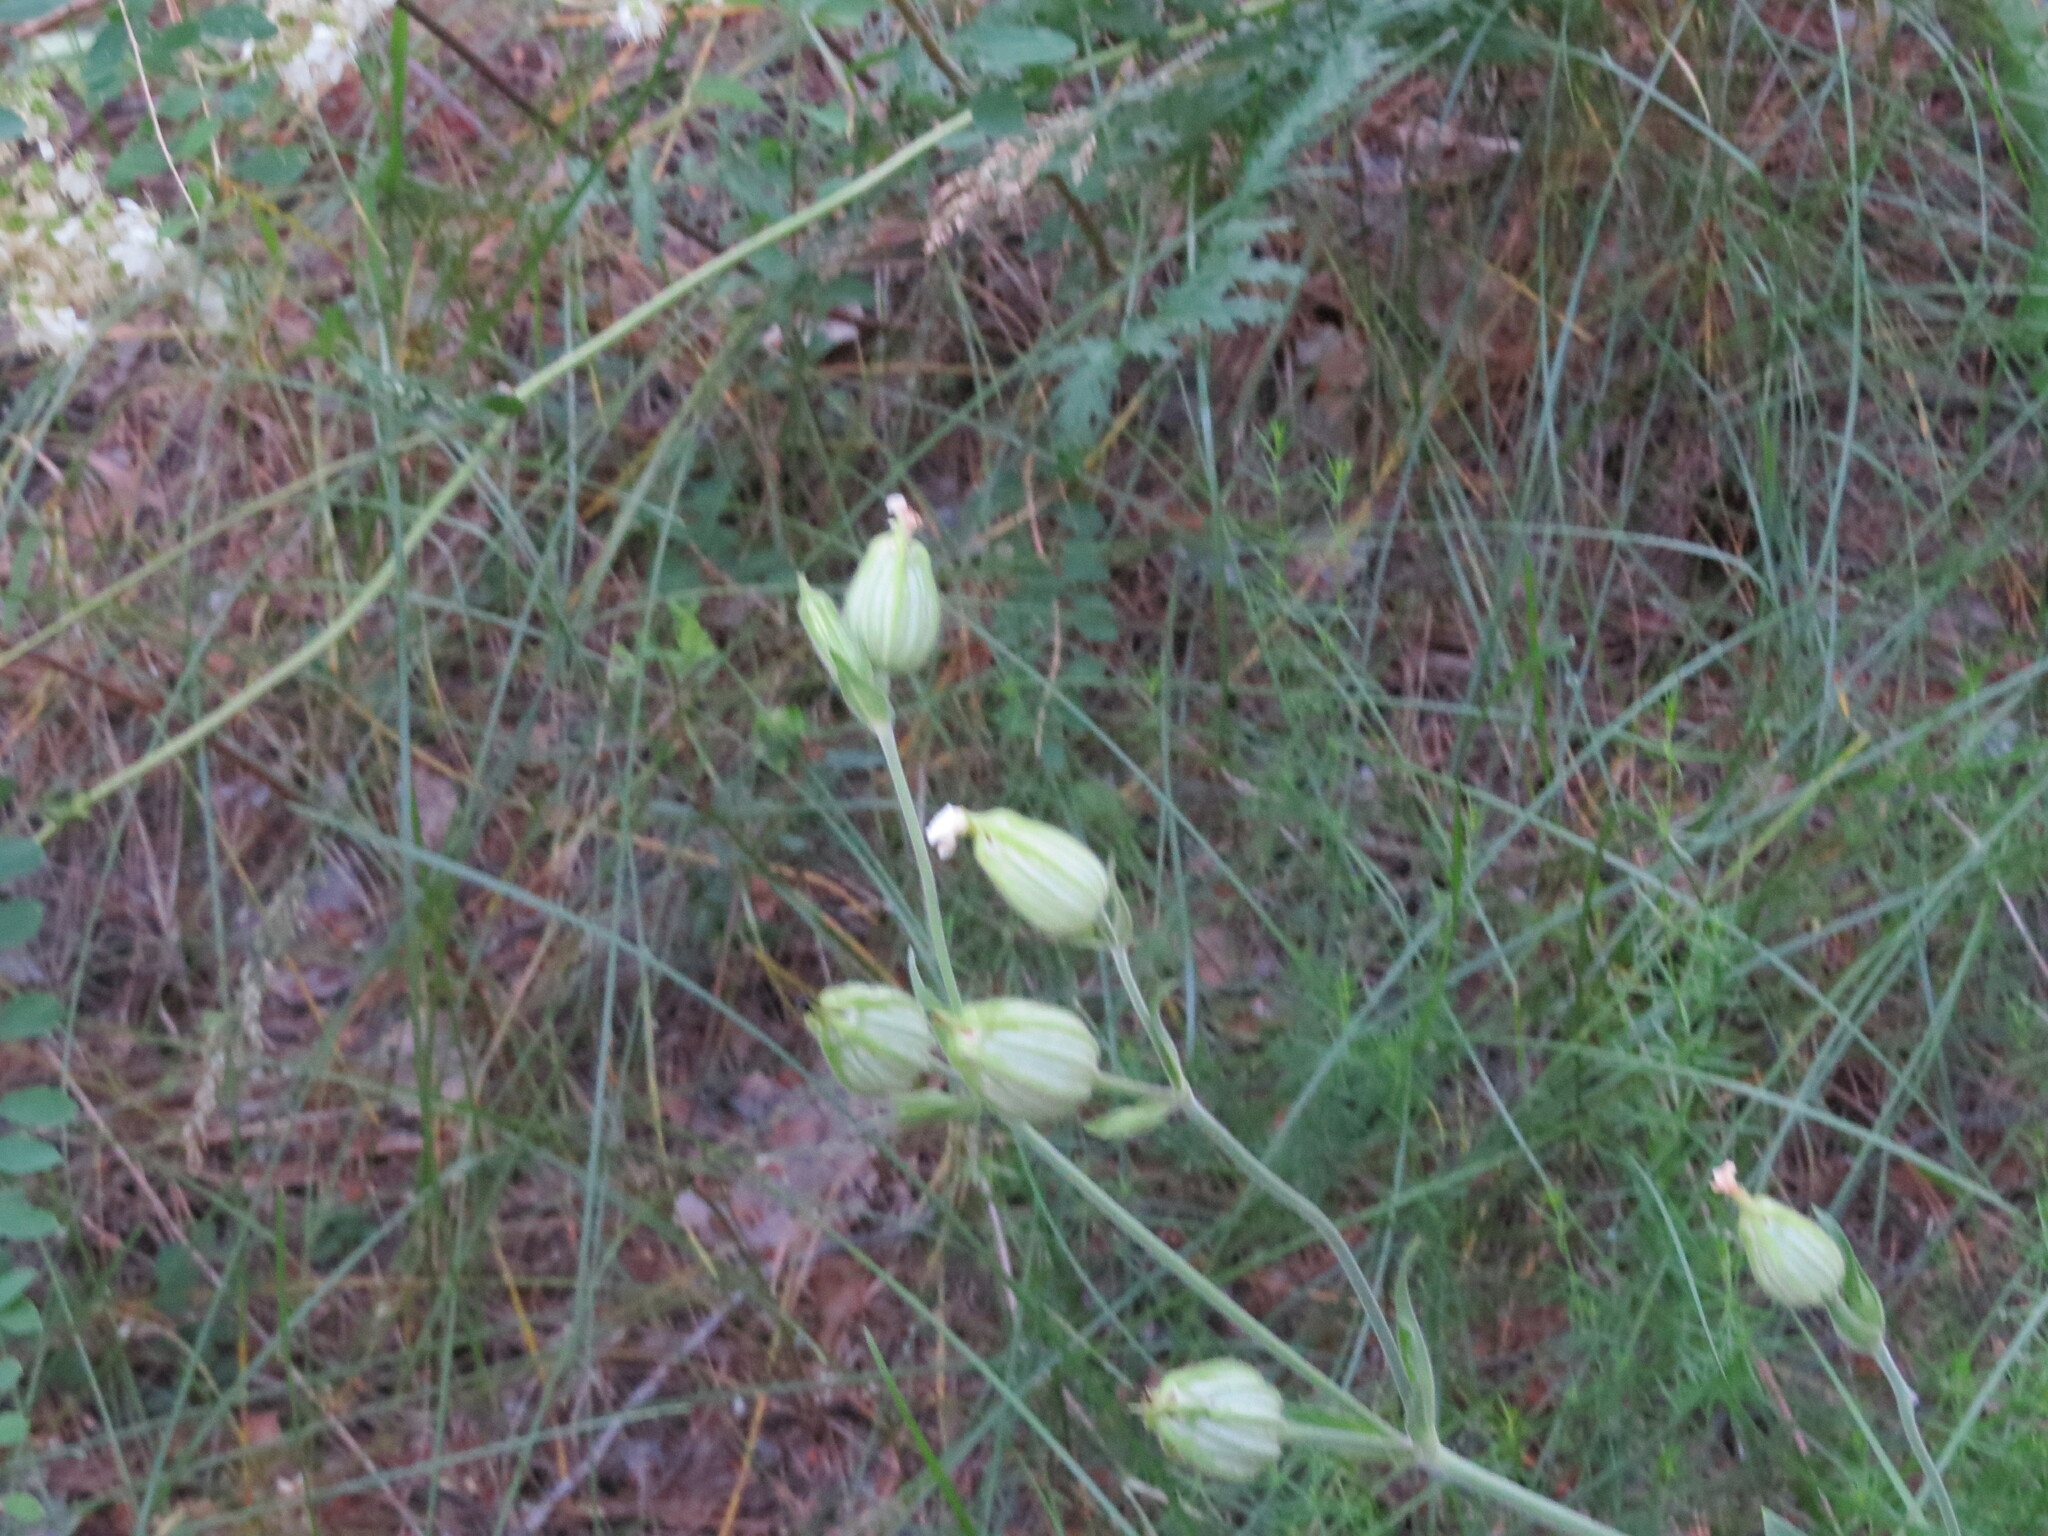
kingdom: Plantae
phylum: Tracheophyta
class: Magnoliopsida
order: Caryophyllales
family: Caryophyllaceae
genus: Silene
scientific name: Silene latifolia
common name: White campion
